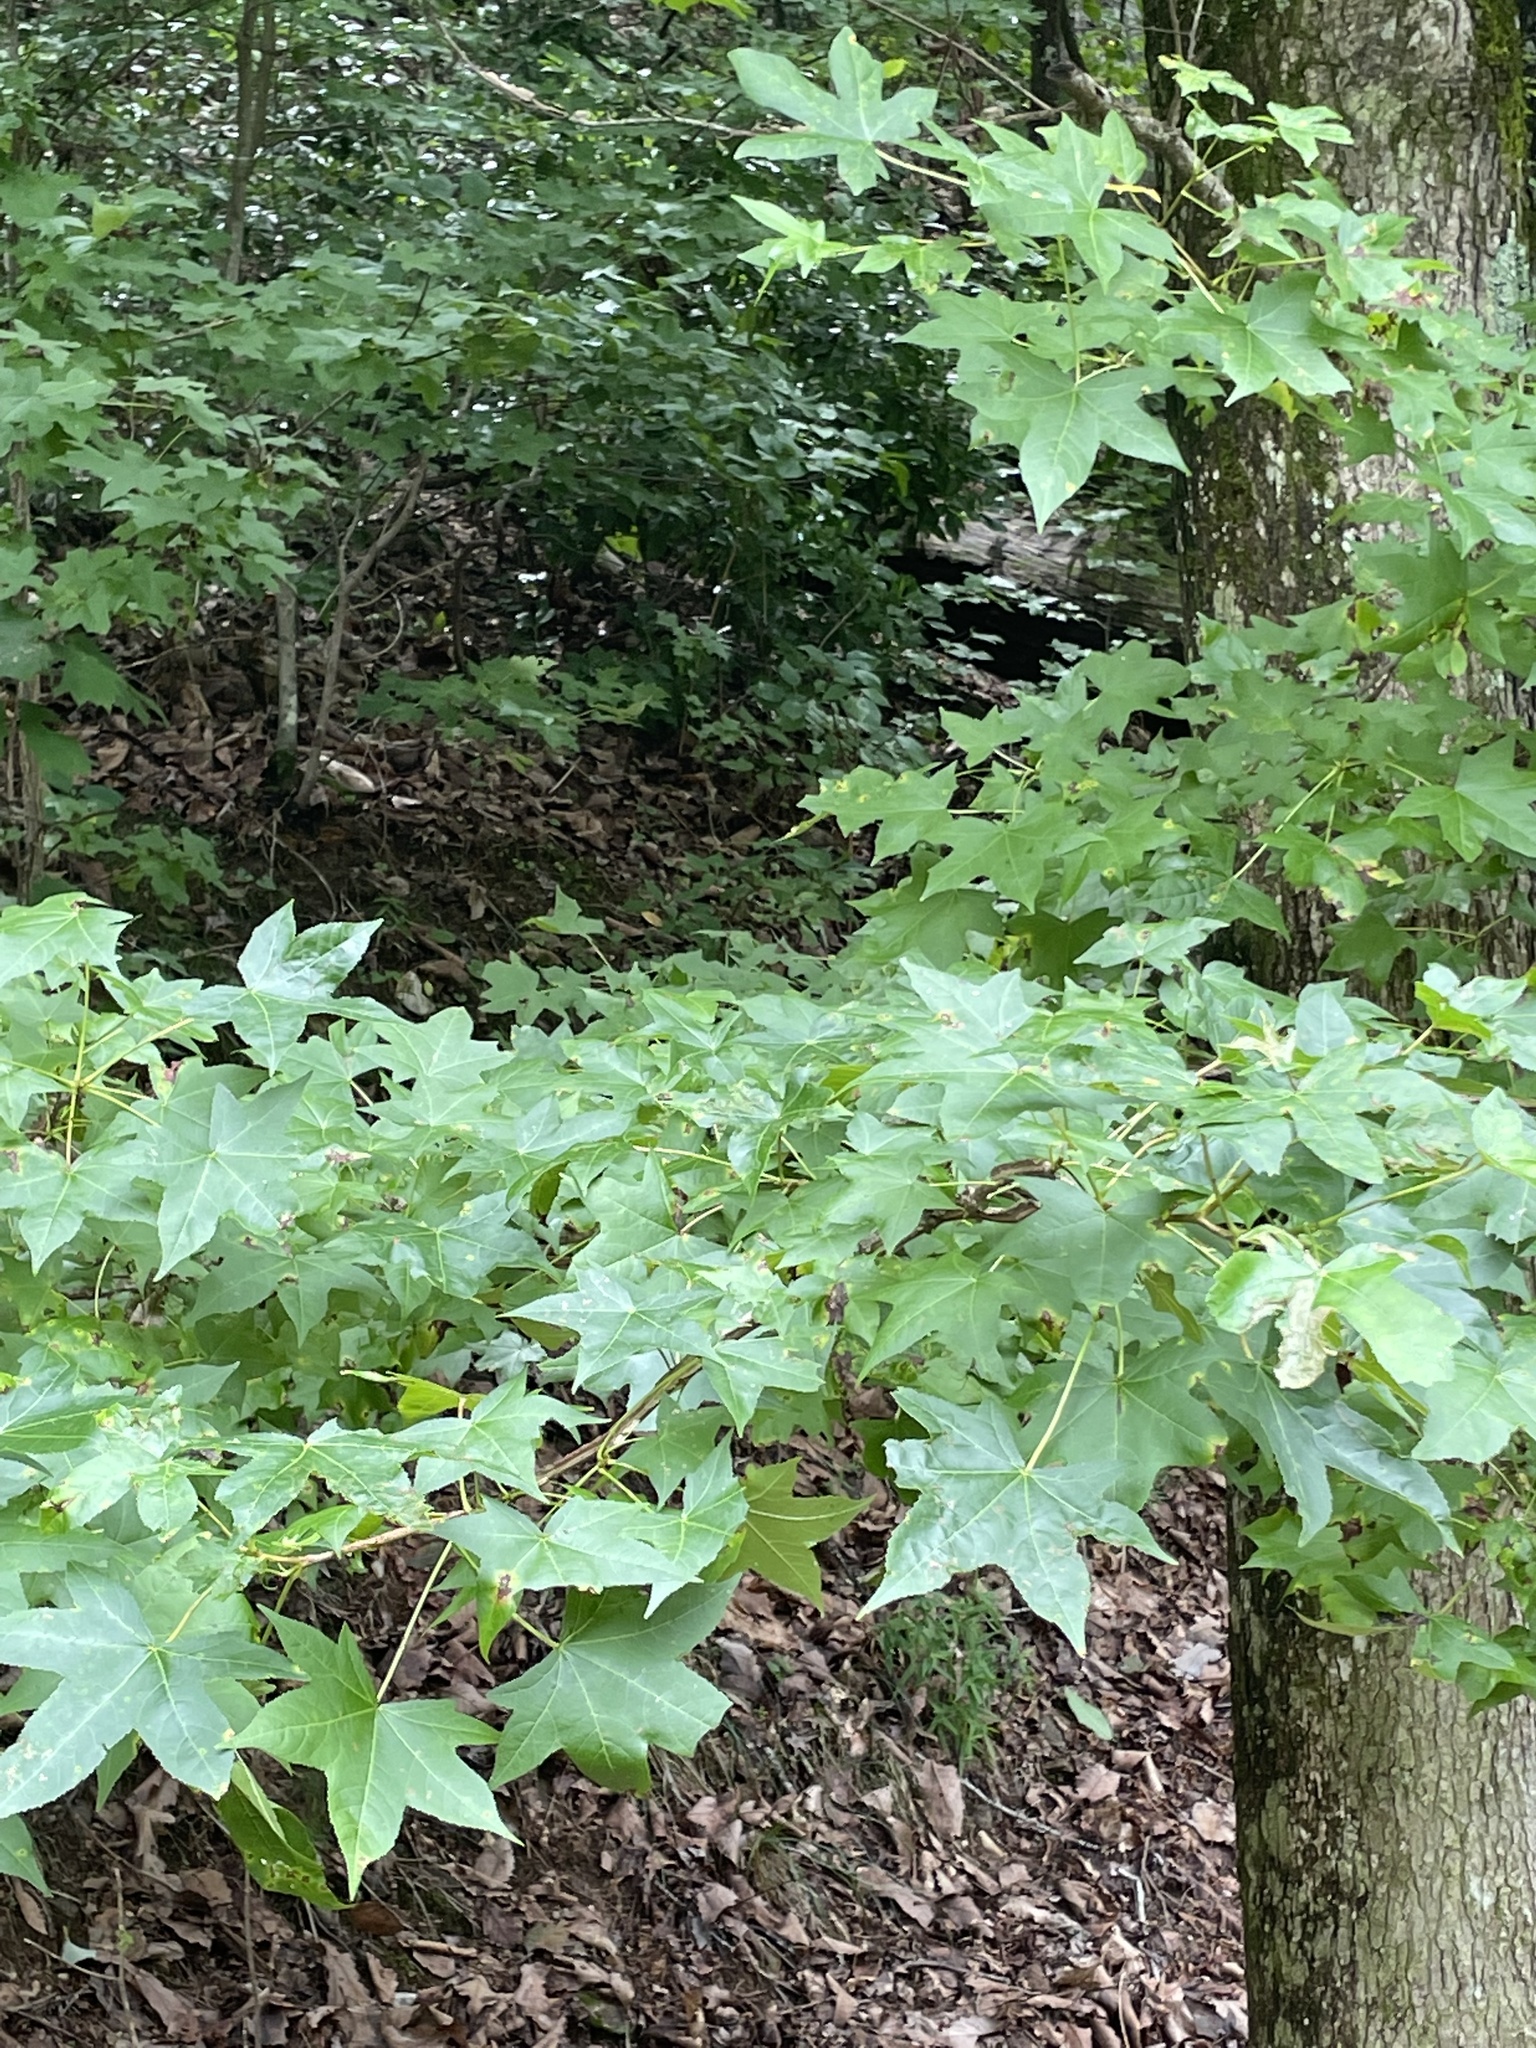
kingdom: Plantae
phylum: Tracheophyta
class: Magnoliopsida
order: Saxifragales
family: Altingiaceae
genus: Liquidambar
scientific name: Liquidambar styraciflua
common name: Sweet gum
